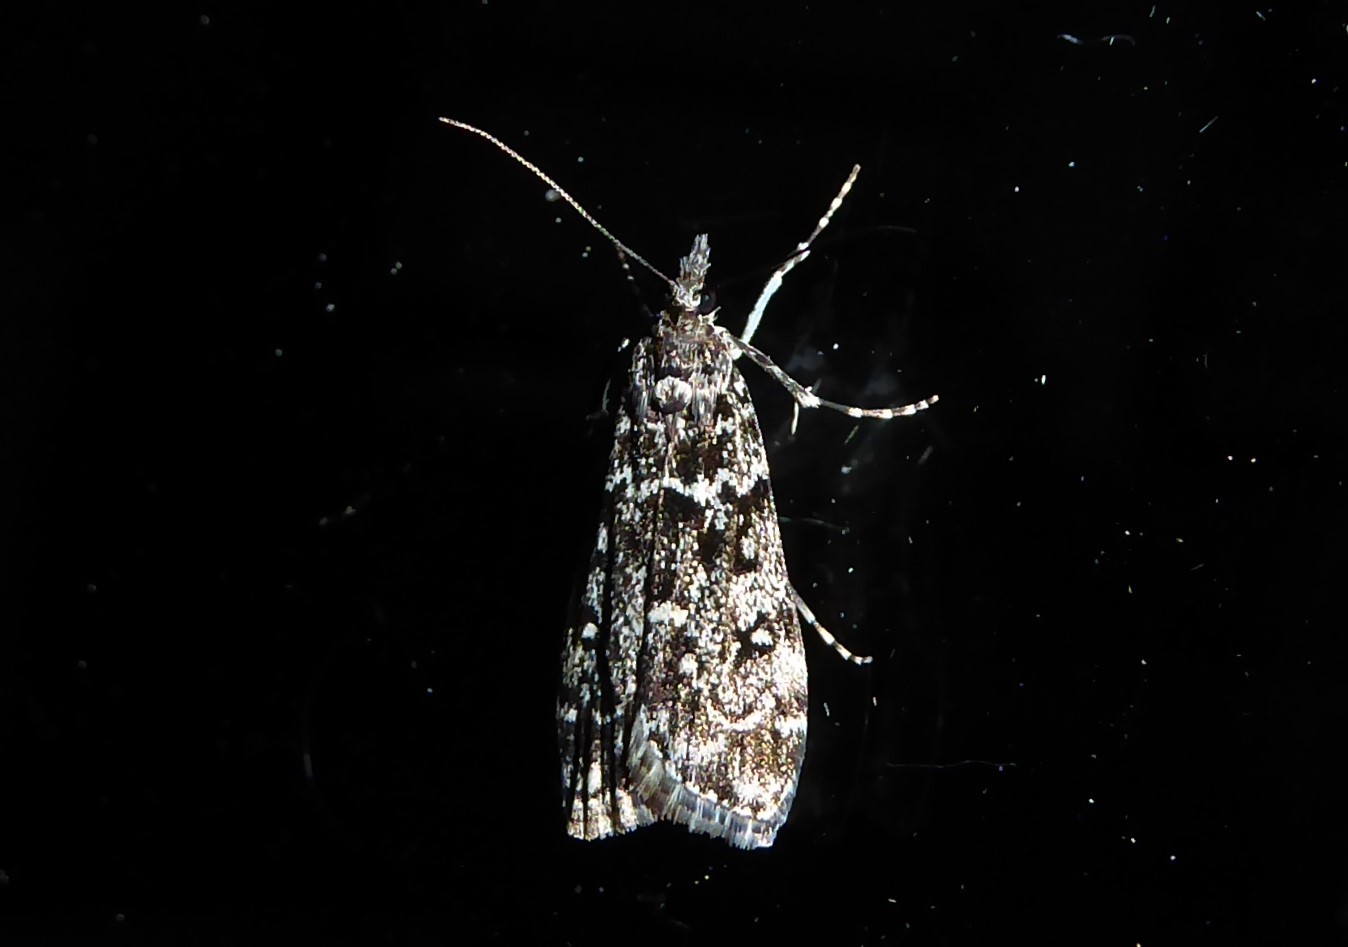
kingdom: Animalia
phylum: Arthropoda
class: Insecta
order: Lepidoptera
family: Crambidae
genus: Eudonia
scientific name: Eudonia philerga
